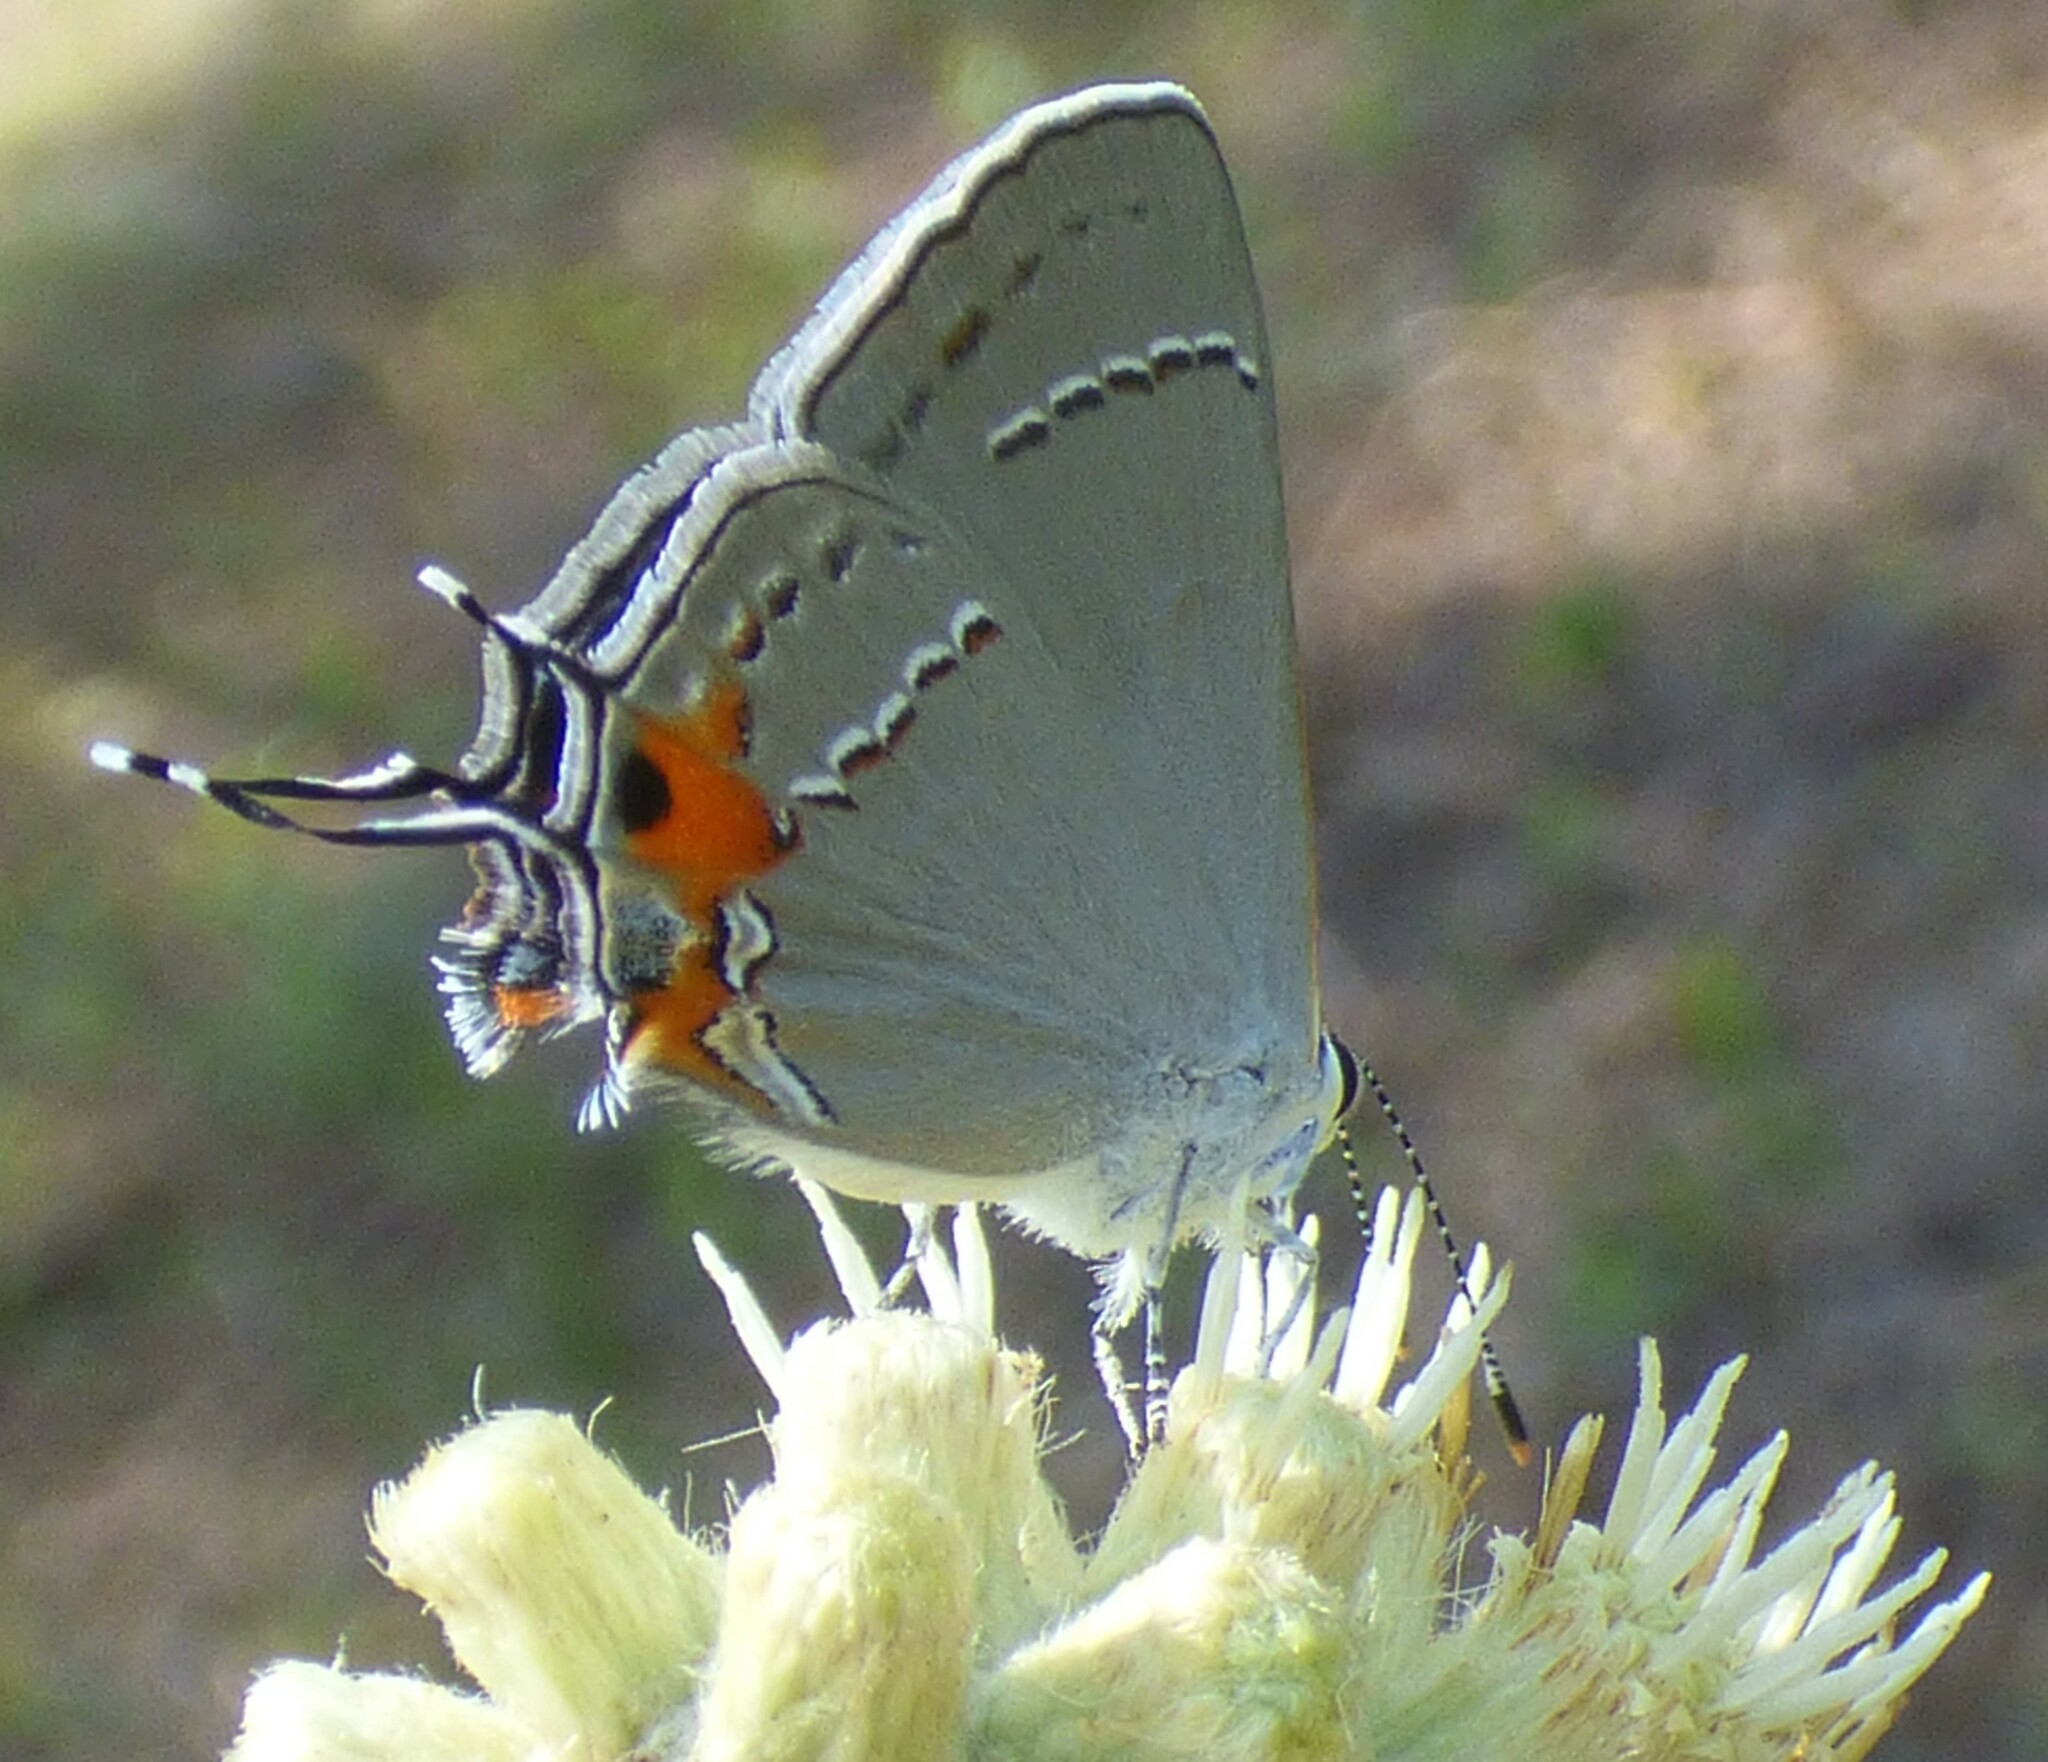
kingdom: Animalia
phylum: Arthropoda
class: Insecta
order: Lepidoptera
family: Lycaenidae
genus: Strymon
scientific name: Strymon melinus
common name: Gray hairstreak
